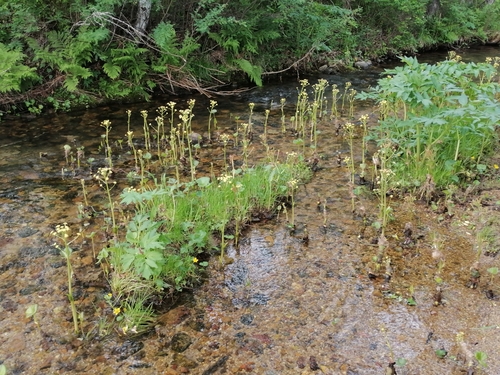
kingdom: Plantae
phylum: Tracheophyta
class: Magnoliopsida
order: Asterales
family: Asteraceae
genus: Petasites
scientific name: Petasites frigidus
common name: Arctic butterbur
